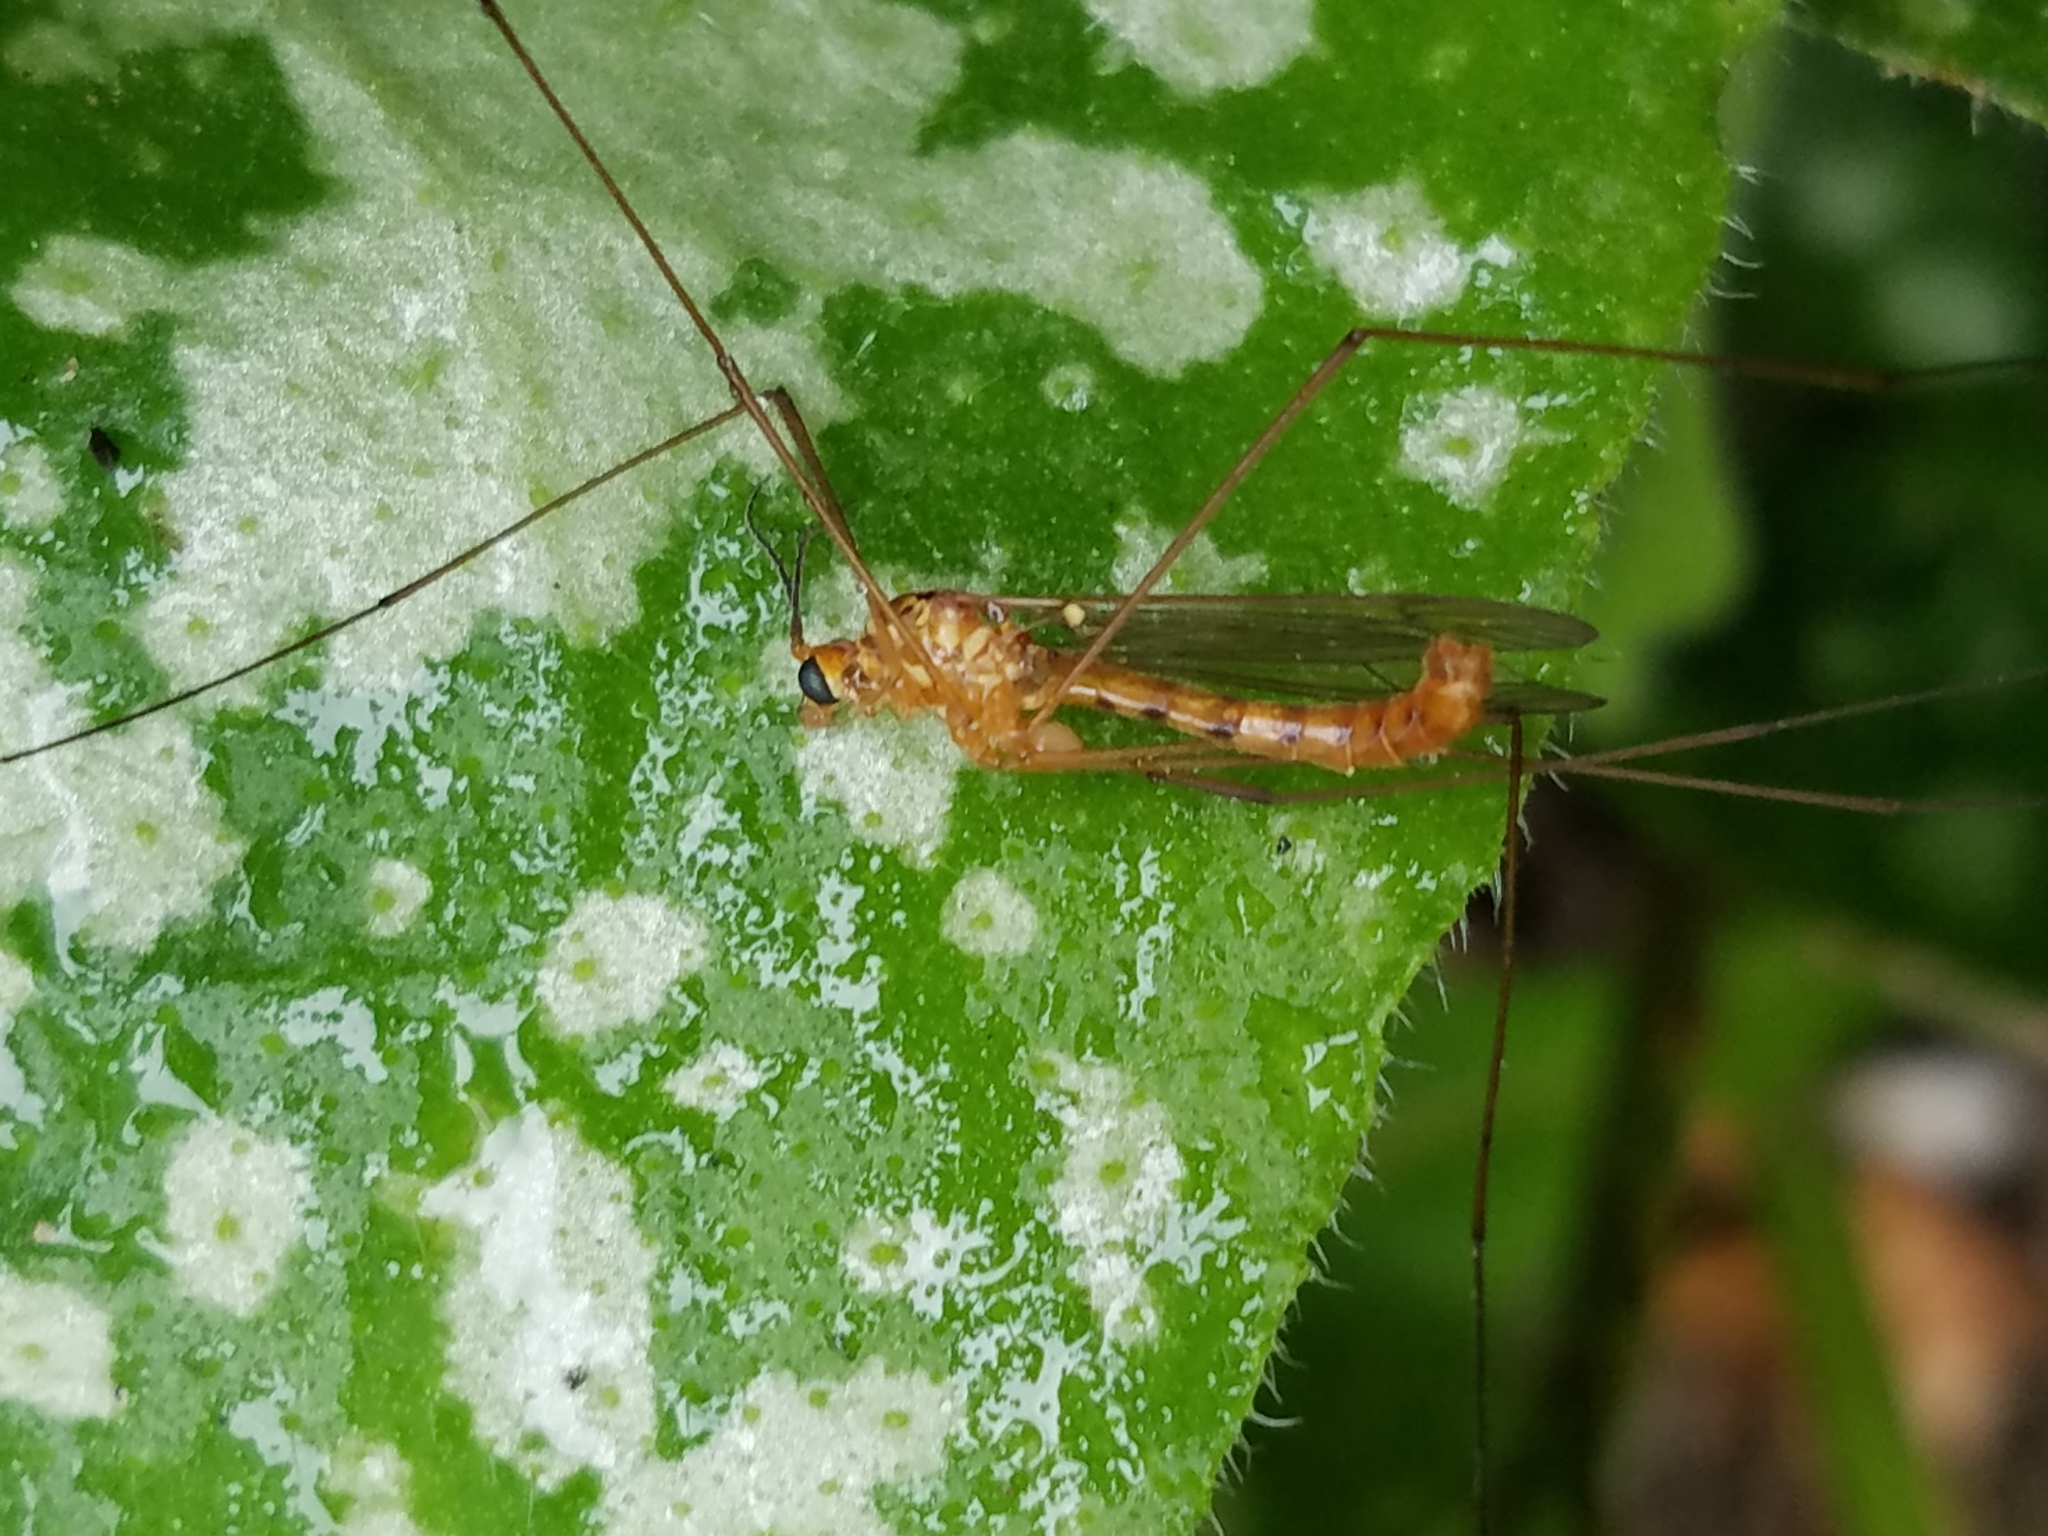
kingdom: Animalia
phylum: Arthropoda
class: Insecta
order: Diptera
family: Tipulidae
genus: Nephrotoma
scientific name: Nephrotoma ferruginea
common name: Ferruginous tiger crane fly
